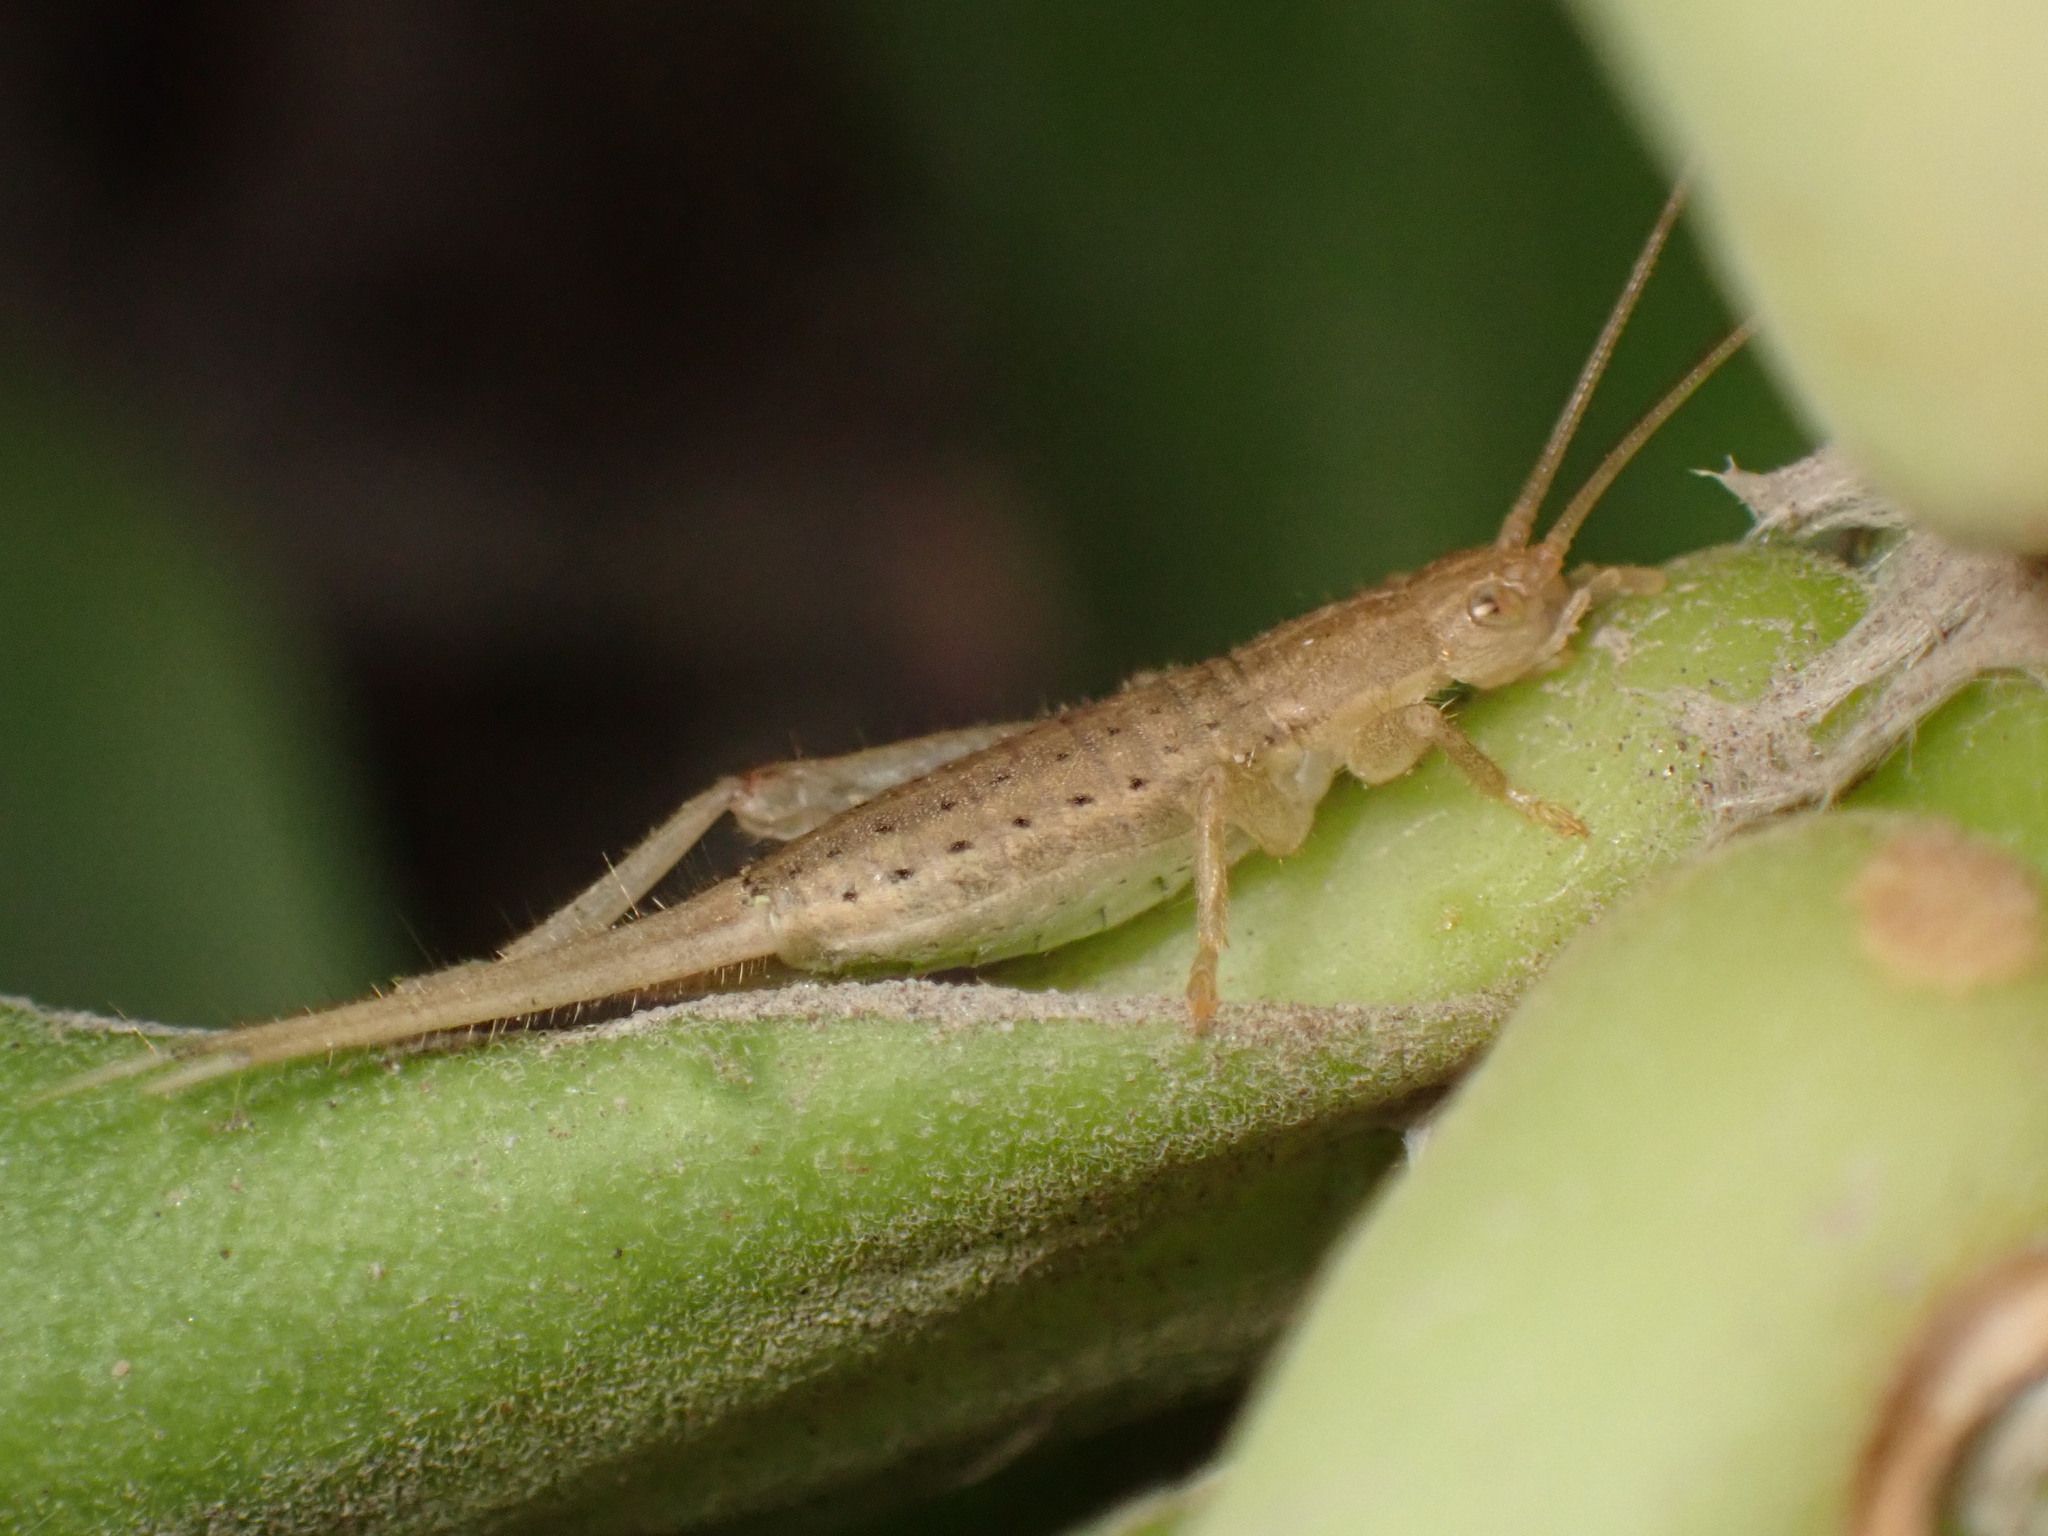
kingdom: Animalia
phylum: Arthropoda
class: Insecta
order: Orthoptera
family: Mogoplistidae
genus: Ornebius
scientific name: Ornebius bimaculatus
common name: Cricket
